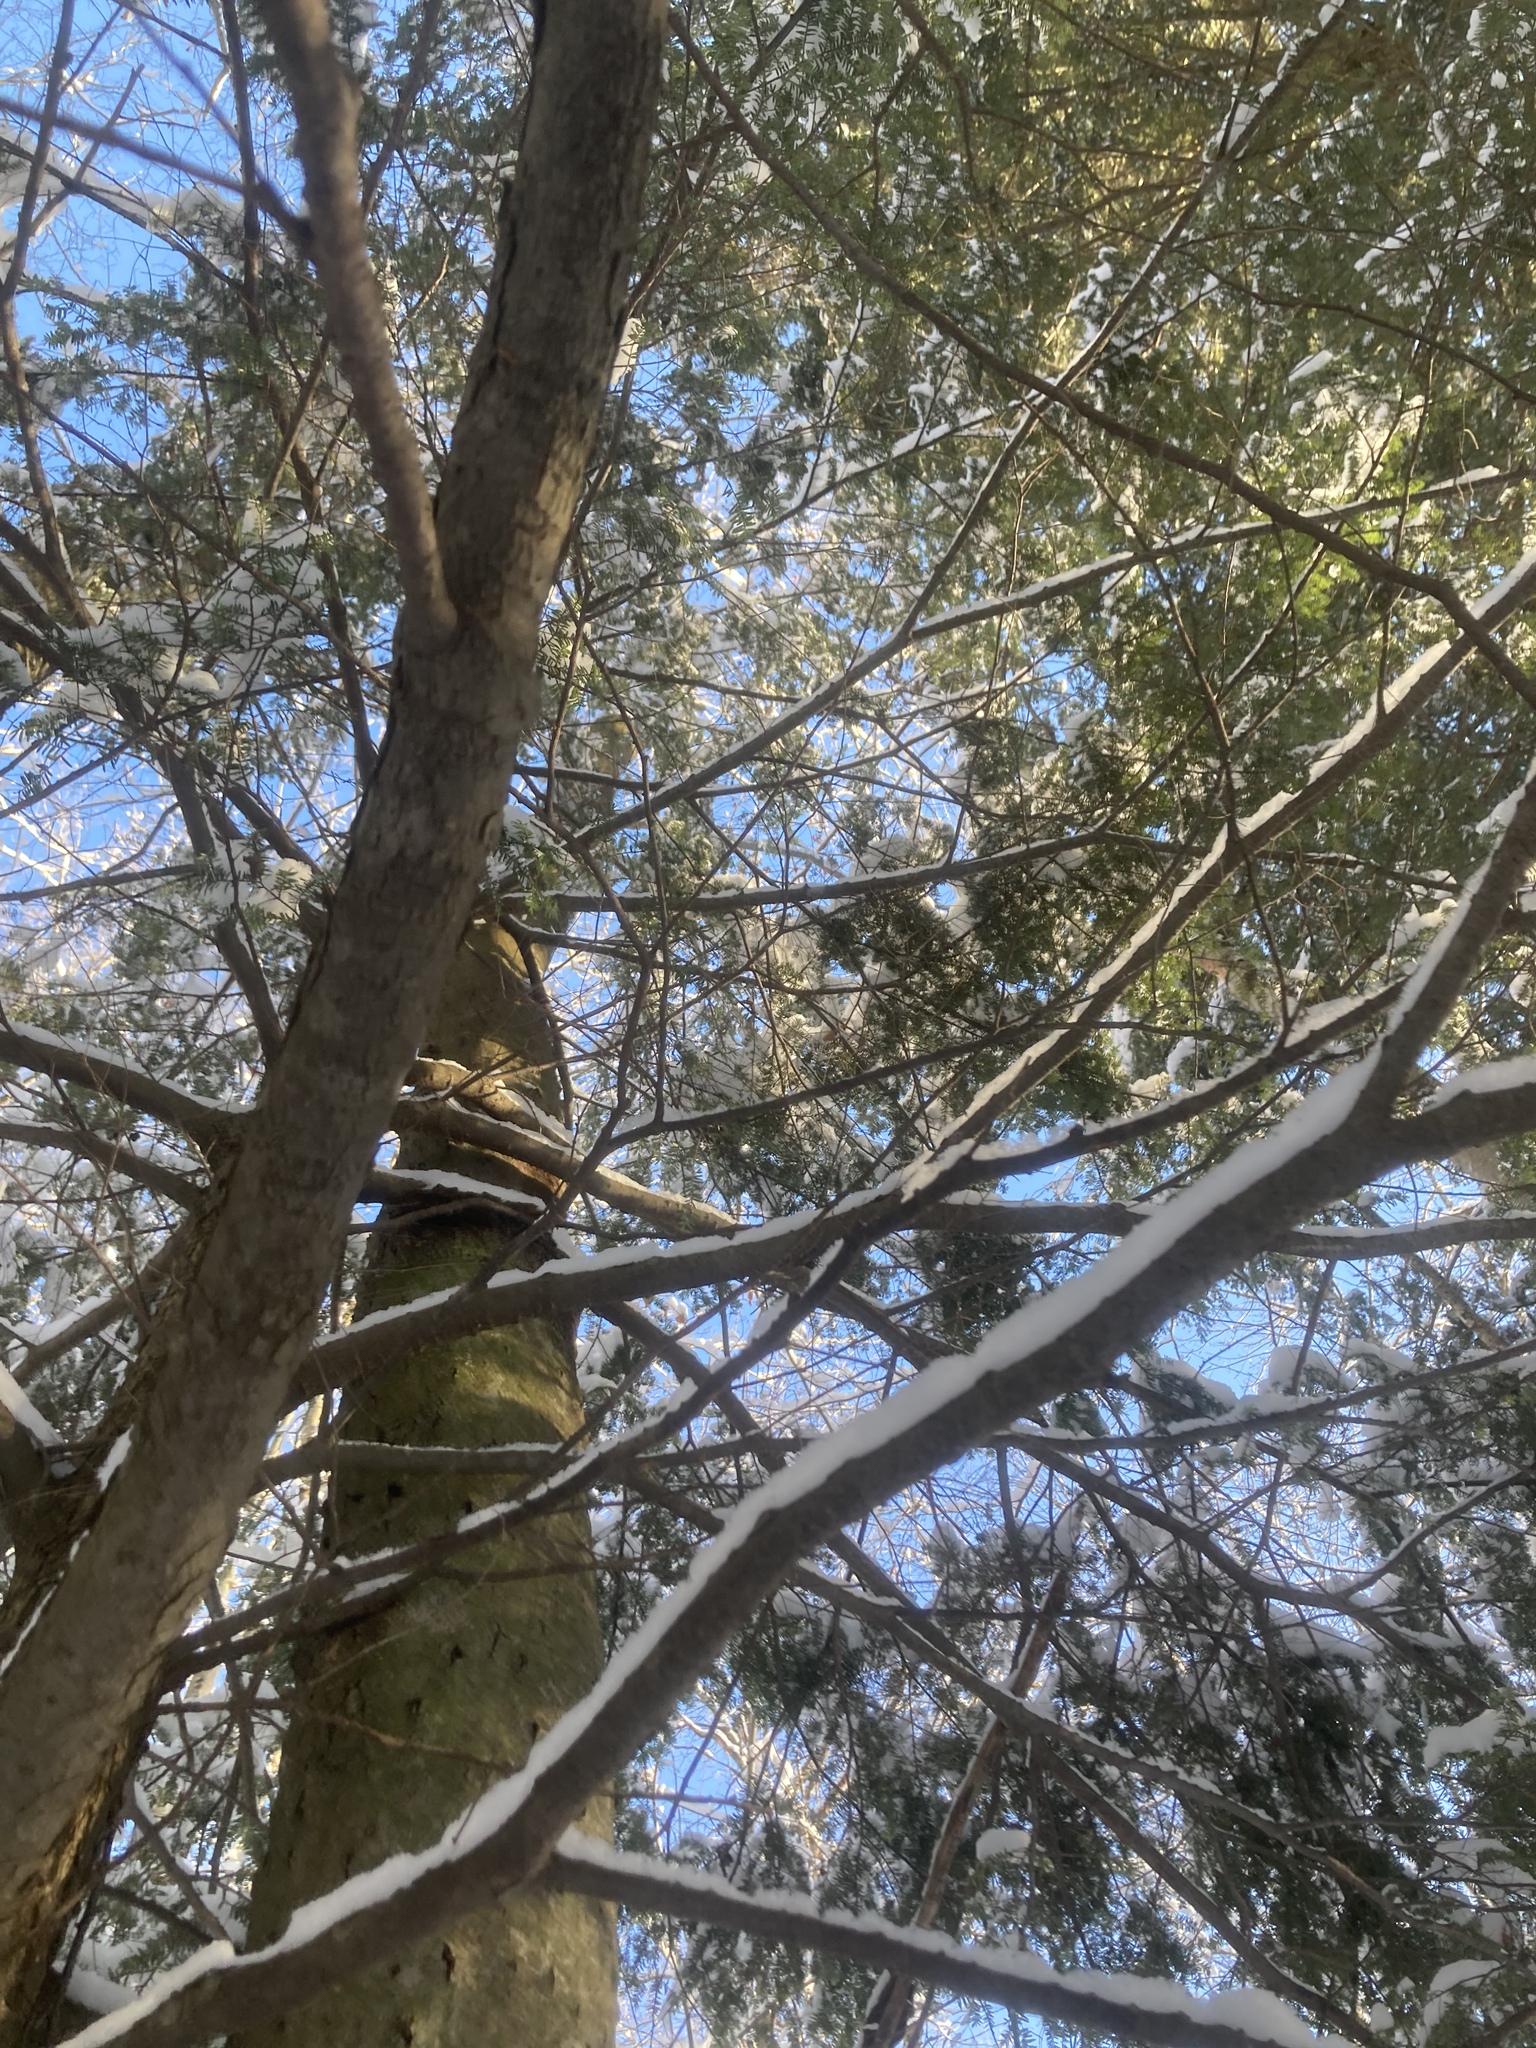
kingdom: Plantae
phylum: Tracheophyta
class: Pinopsida
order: Pinales
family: Pinaceae
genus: Tsuga
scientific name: Tsuga canadensis
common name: Eastern hemlock
